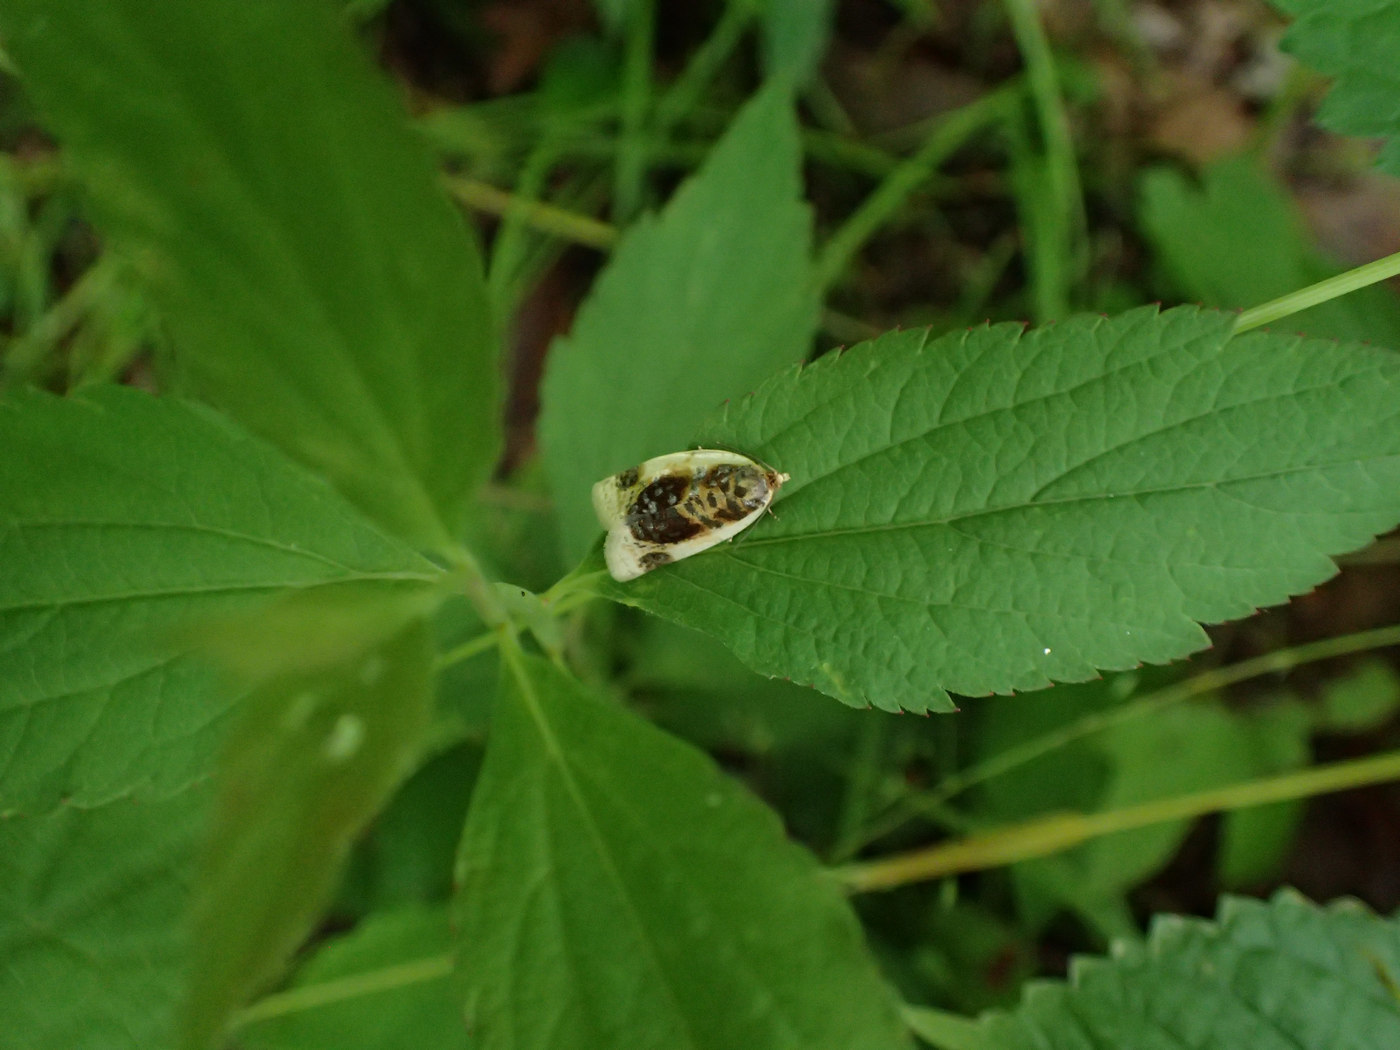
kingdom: Animalia
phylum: Arthropoda
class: Insecta
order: Lepidoptera
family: Tortricidae
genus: Clepsis
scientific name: Clepsis melaleucanus
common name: American apple tortrix
